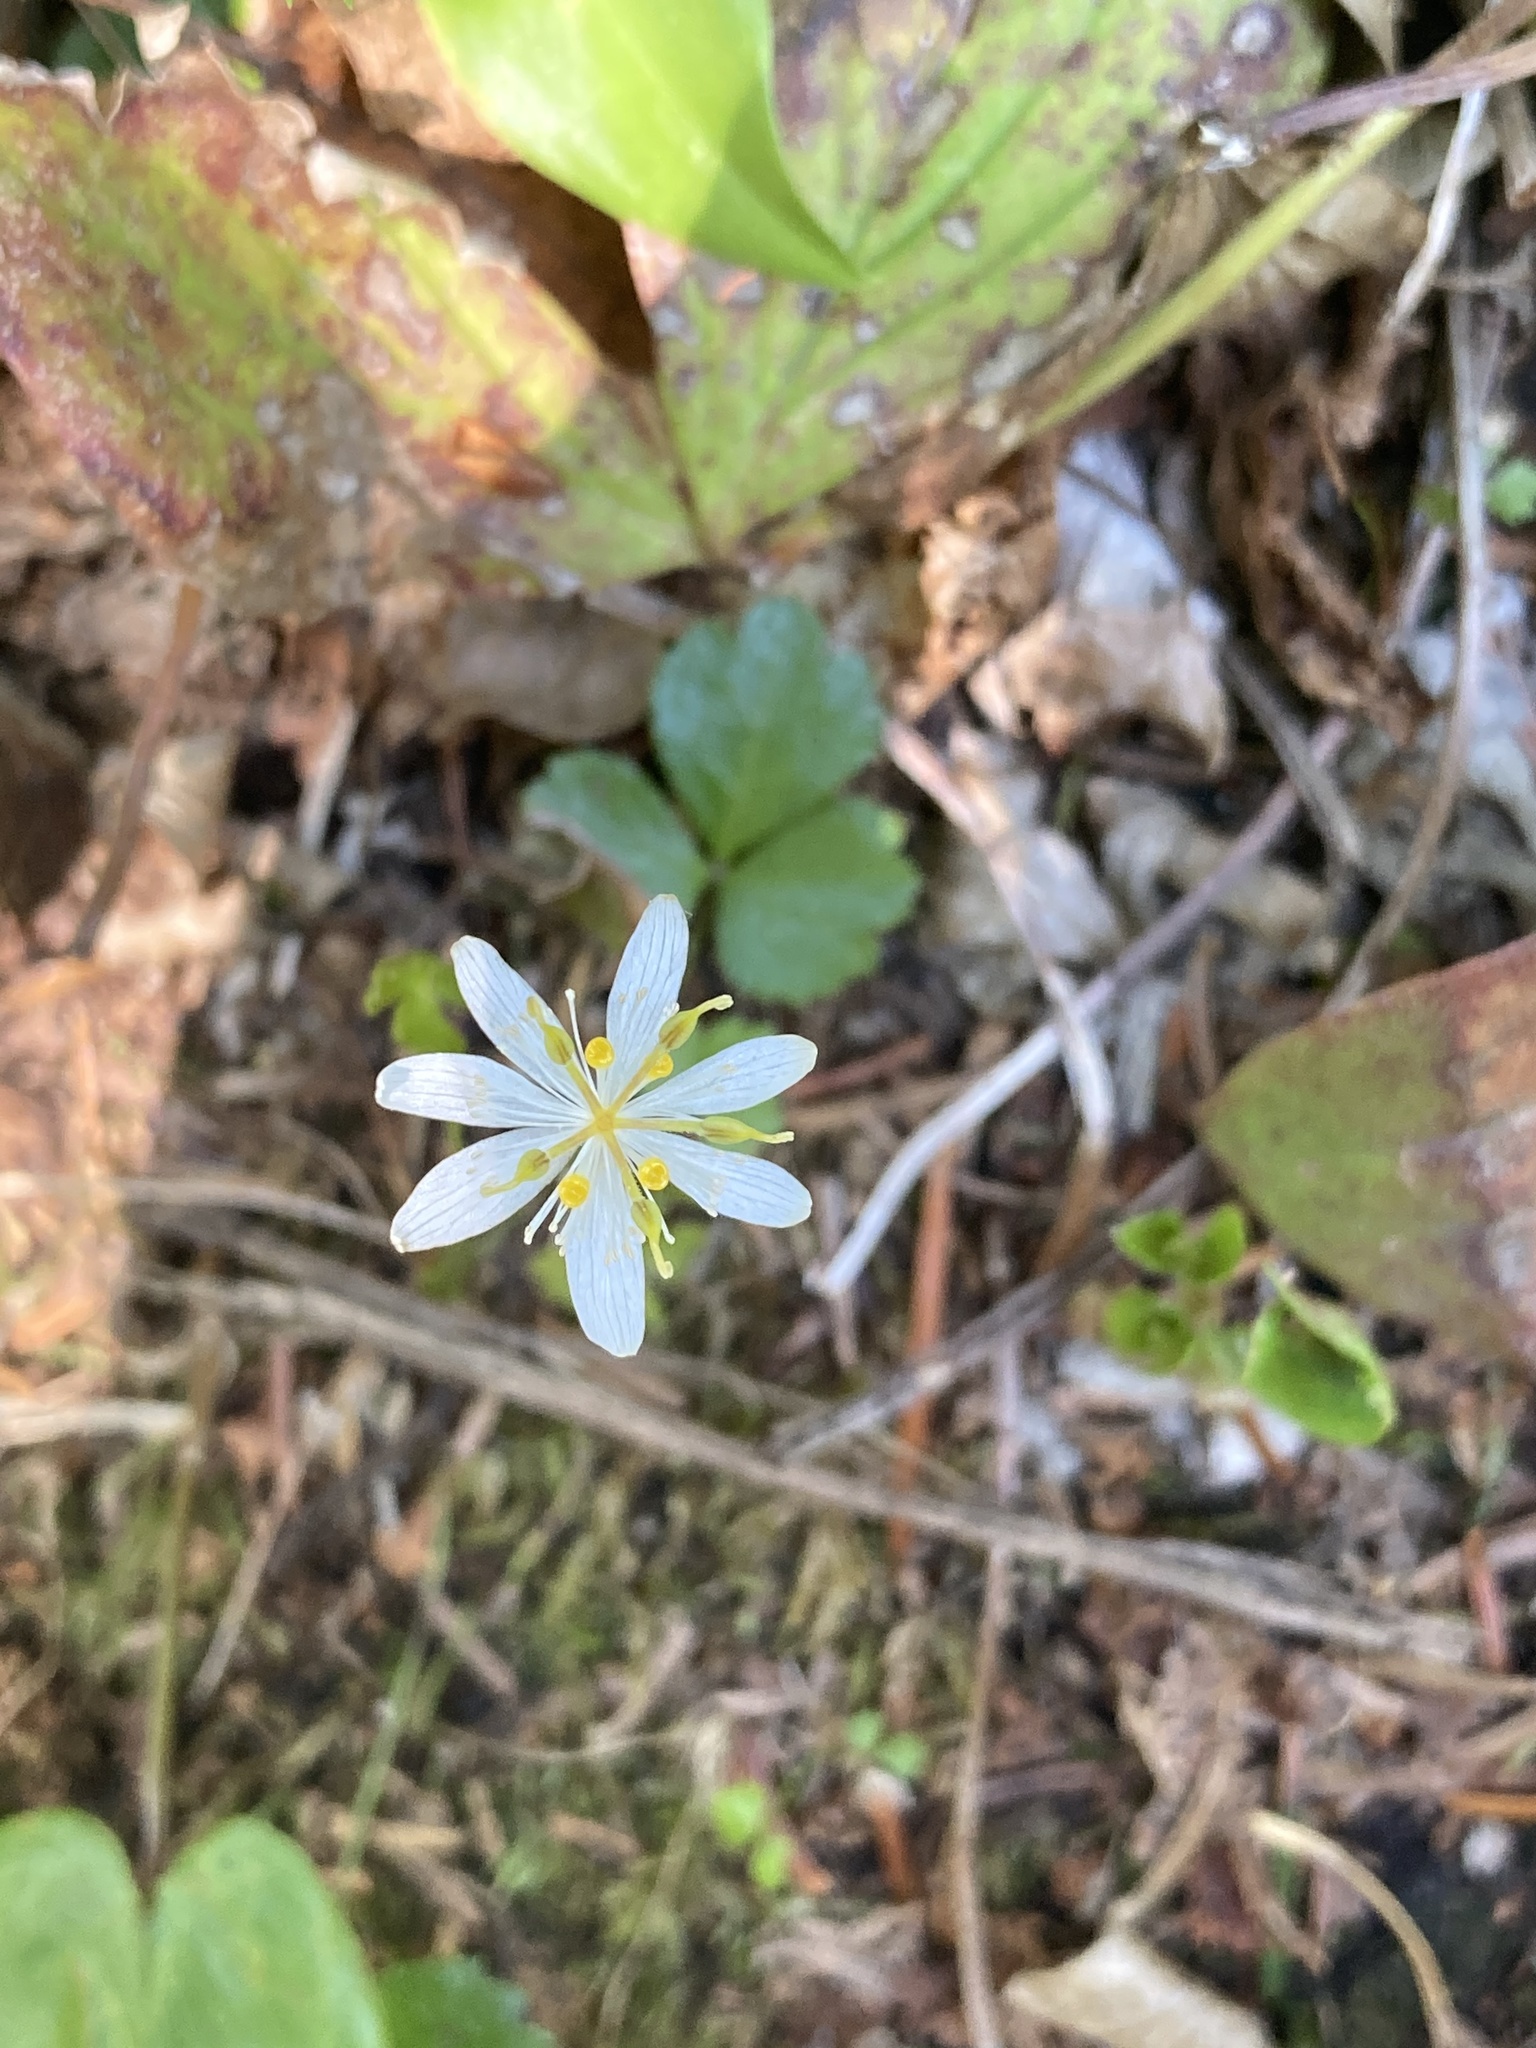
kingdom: Plantae
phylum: Tracheophyta
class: Magnoliopsida
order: Ranunculales
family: Ranunculaceae
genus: Coptis
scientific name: Coptis trifolia
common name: Canker-root
